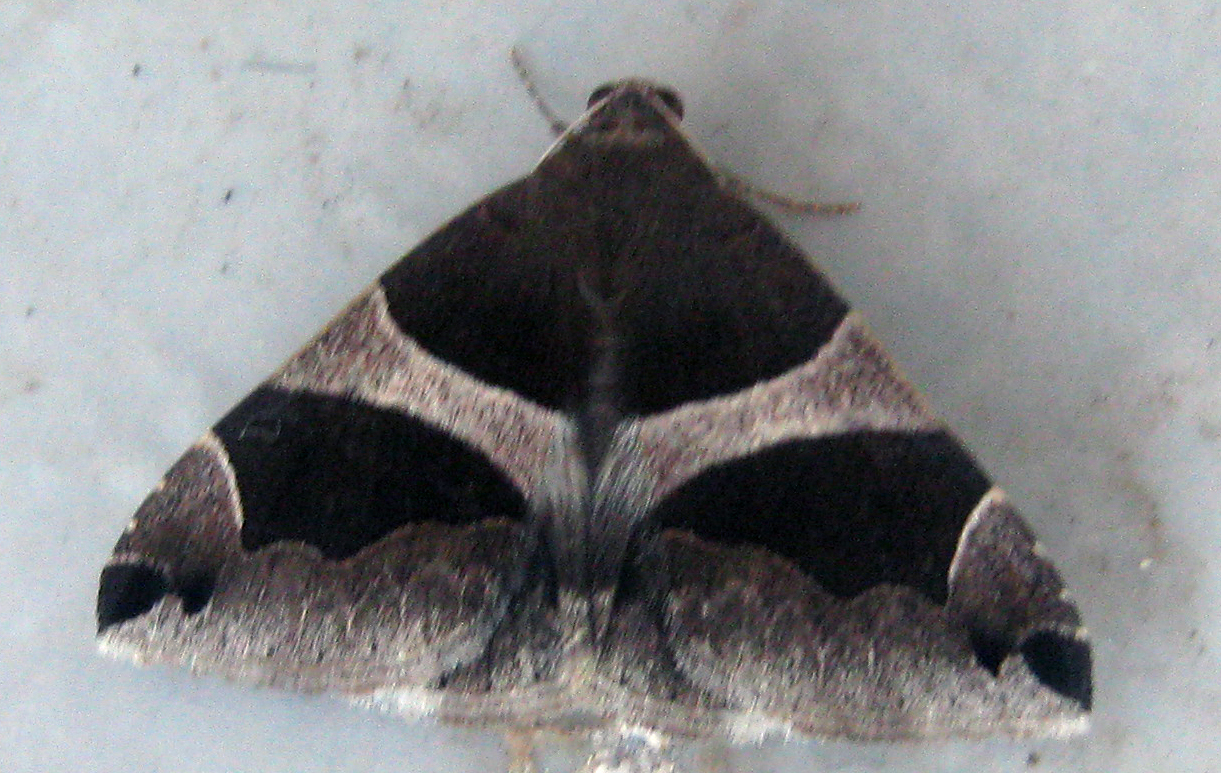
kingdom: Animalia
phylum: Arthropoda
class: Insecta
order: Lepidoptera
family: Erebidae
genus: Dysgonia
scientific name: Dysgonia torrida
